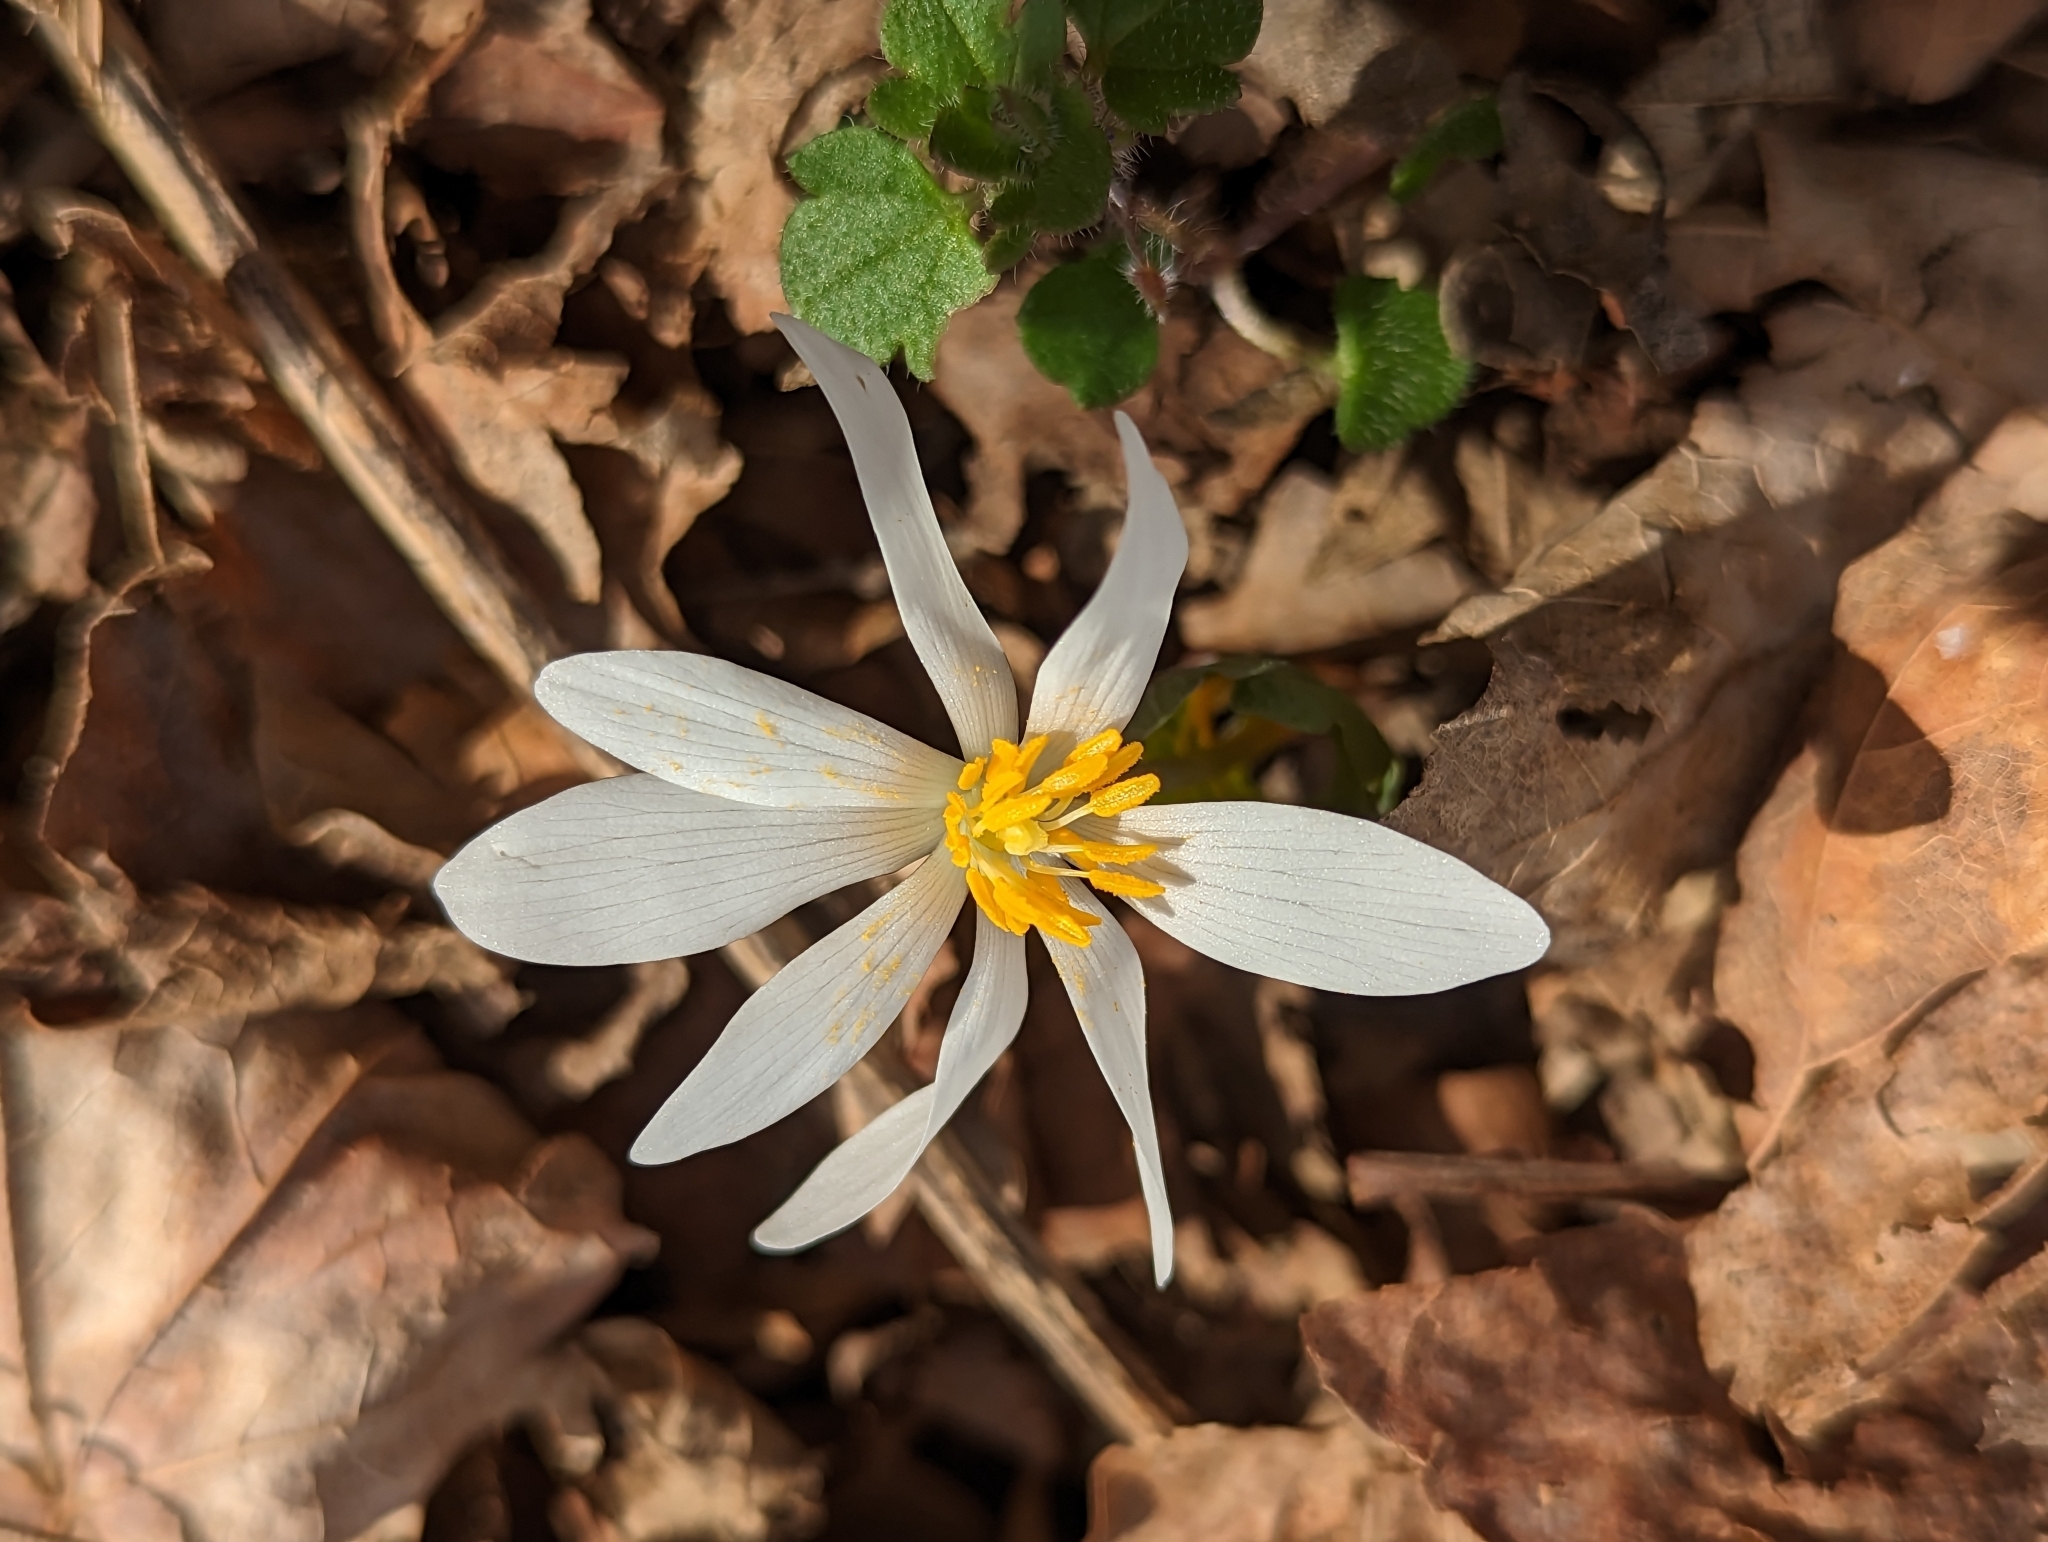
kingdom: Plantae
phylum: Tracheophyta
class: Magnoliopsida
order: Ranunculales
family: Papaveraceae
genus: Sanguinaria
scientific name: Sanguinaria canadensis
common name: Bloodroot
